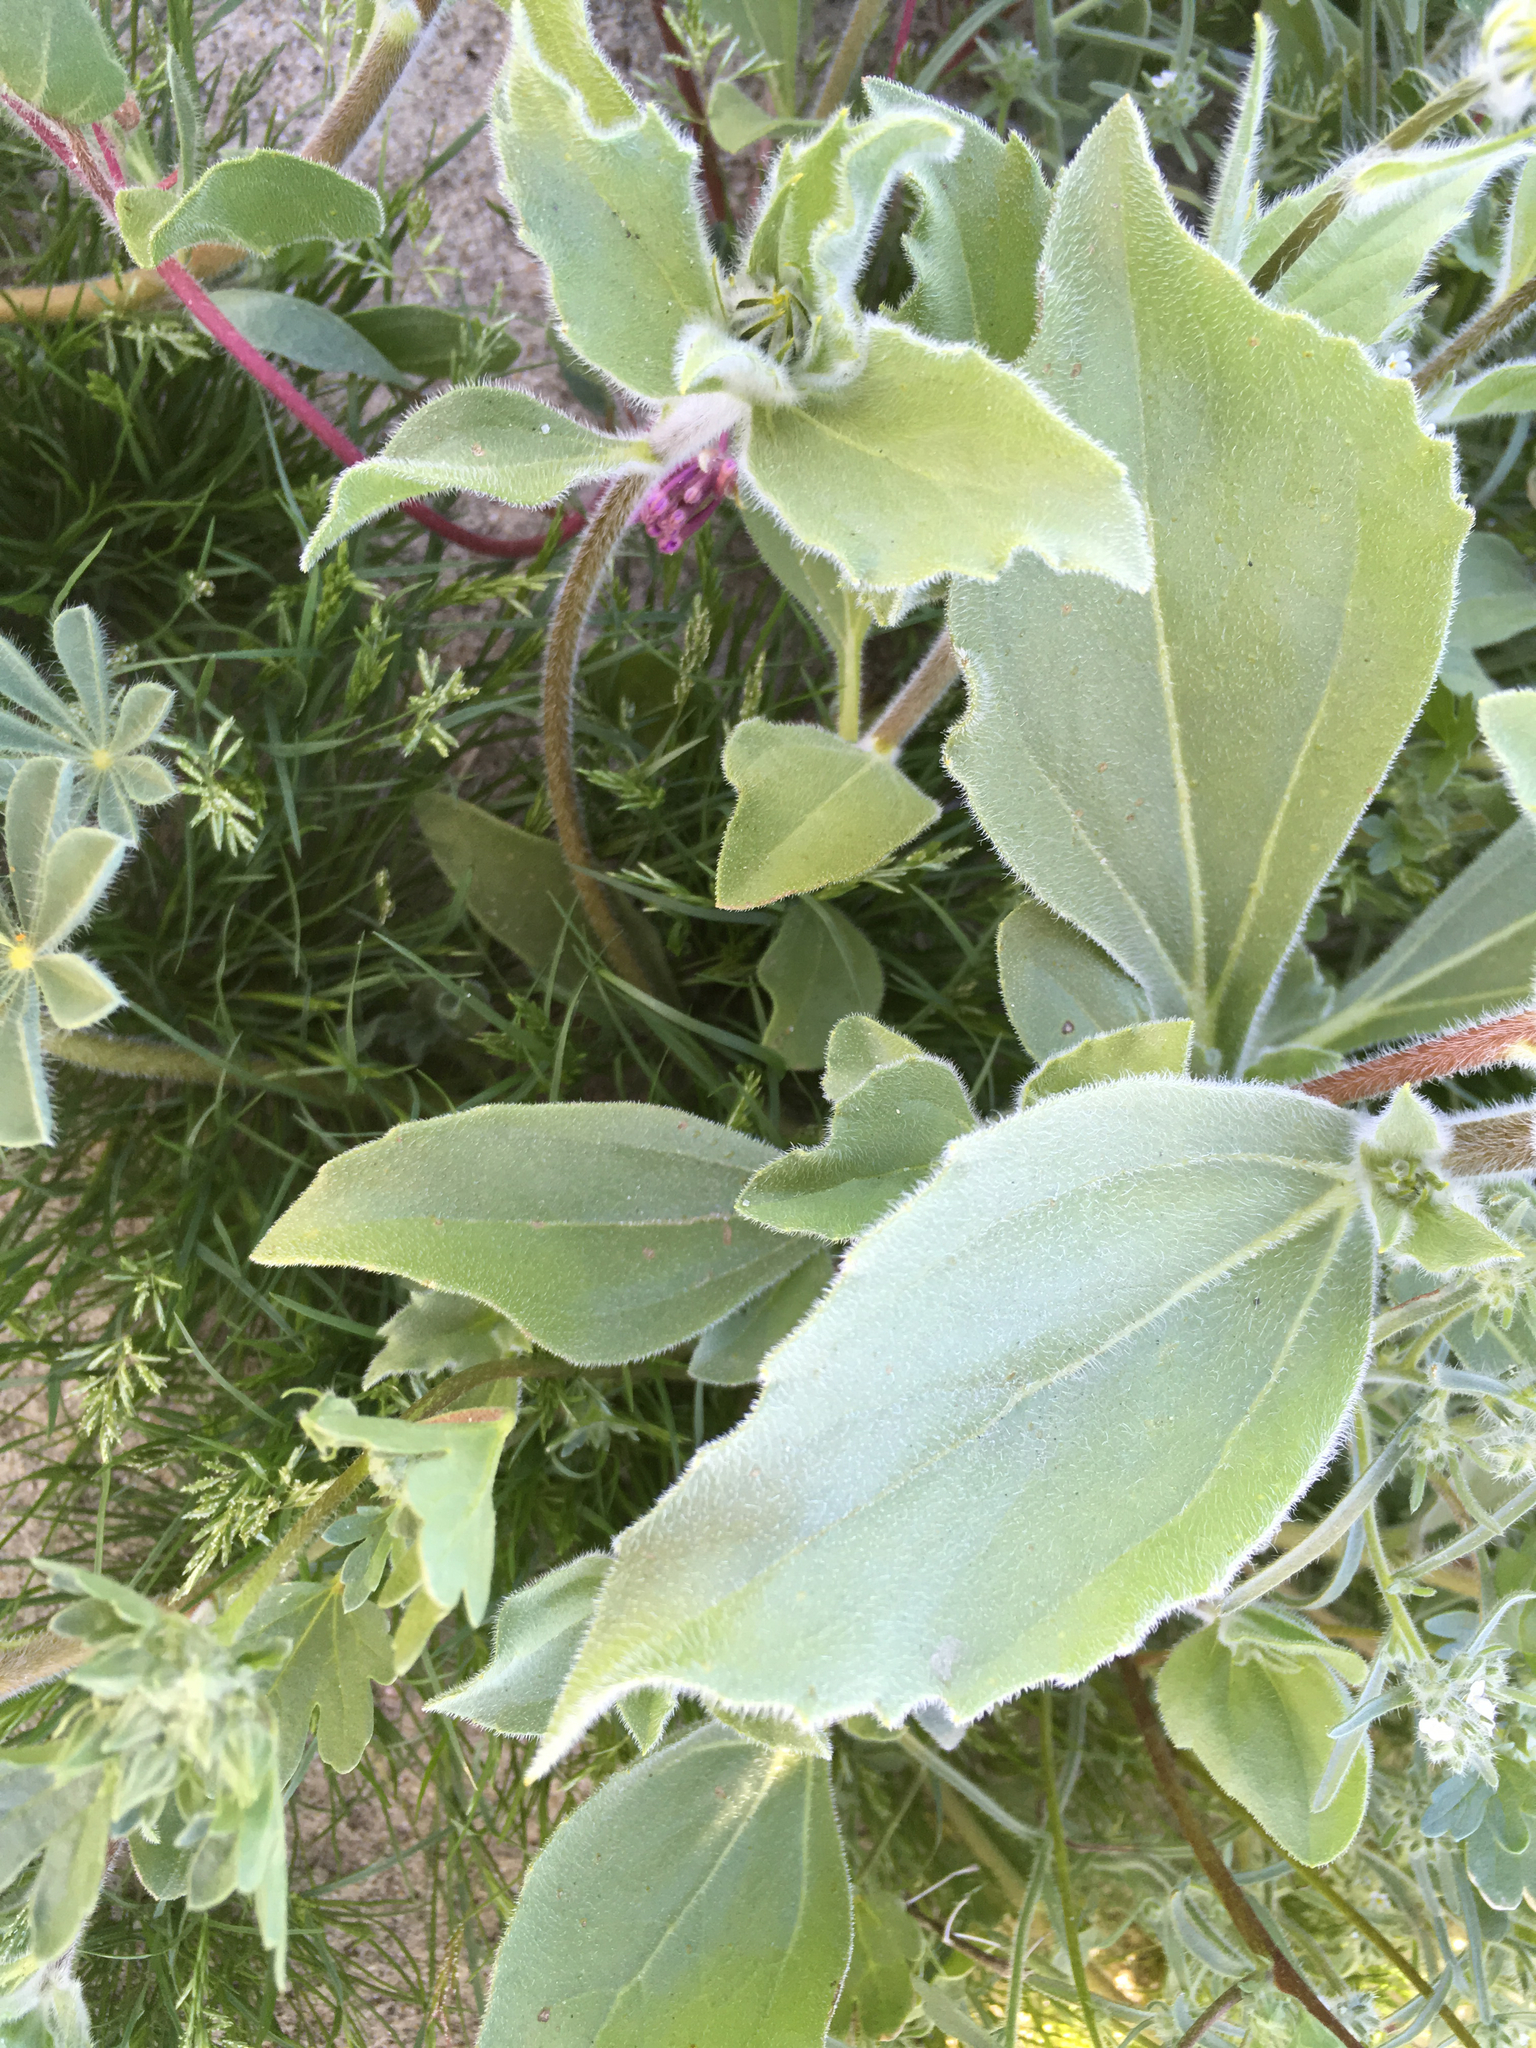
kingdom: Plantae
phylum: Tracheophyta
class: Magnoliopsida
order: Asterales
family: Asteraceae
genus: Geraea
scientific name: Geraea canescens
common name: Desert-gold
